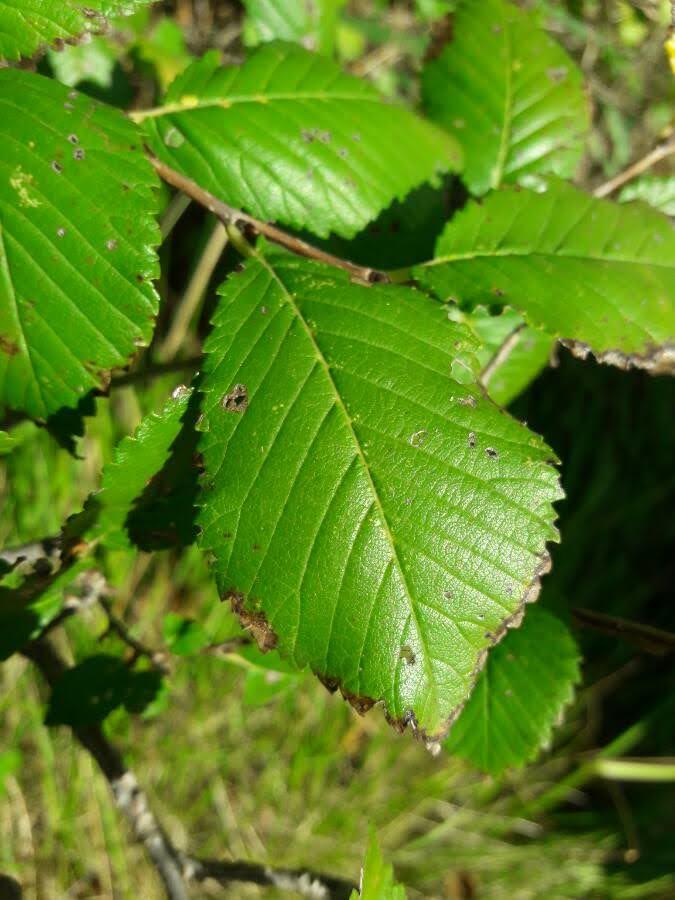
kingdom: Plantae
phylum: Tracheophyta
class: Magnoliopsida
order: Rosales
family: Ulmaceae
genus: Ulmus
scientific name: Ulmus minor
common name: Small-leaved elm
